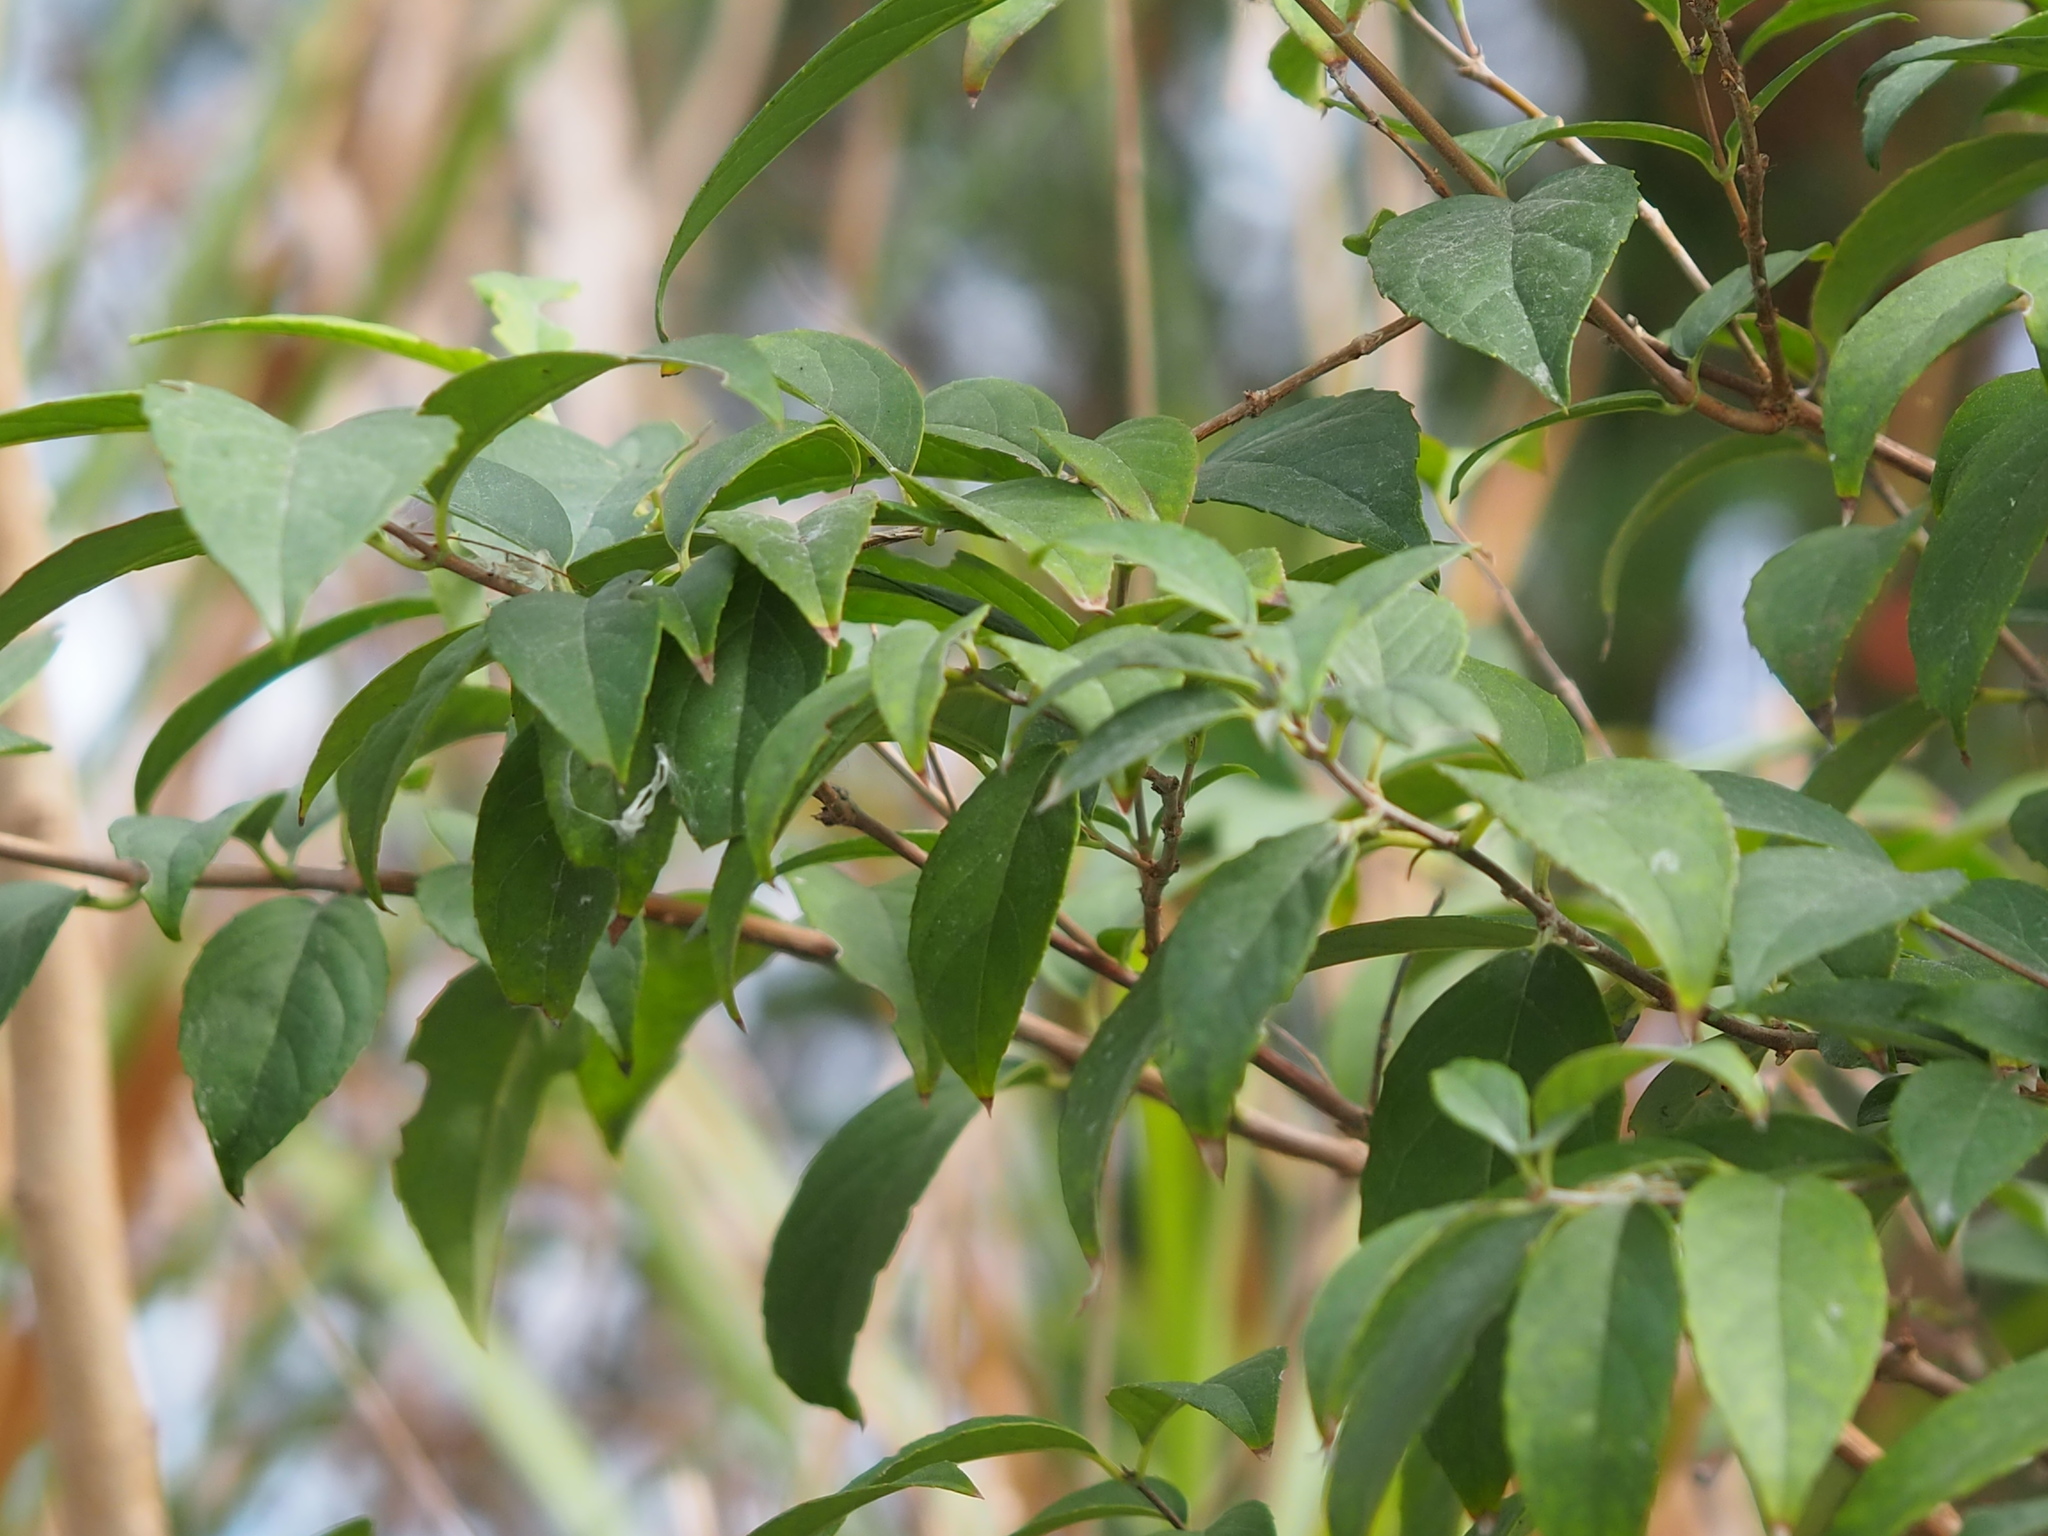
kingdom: Plantae
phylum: Tracheophyta
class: Magnoliopsida
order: Cornales
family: Hydrangeaceae
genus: Deutzia
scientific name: Deutzia pulchra
